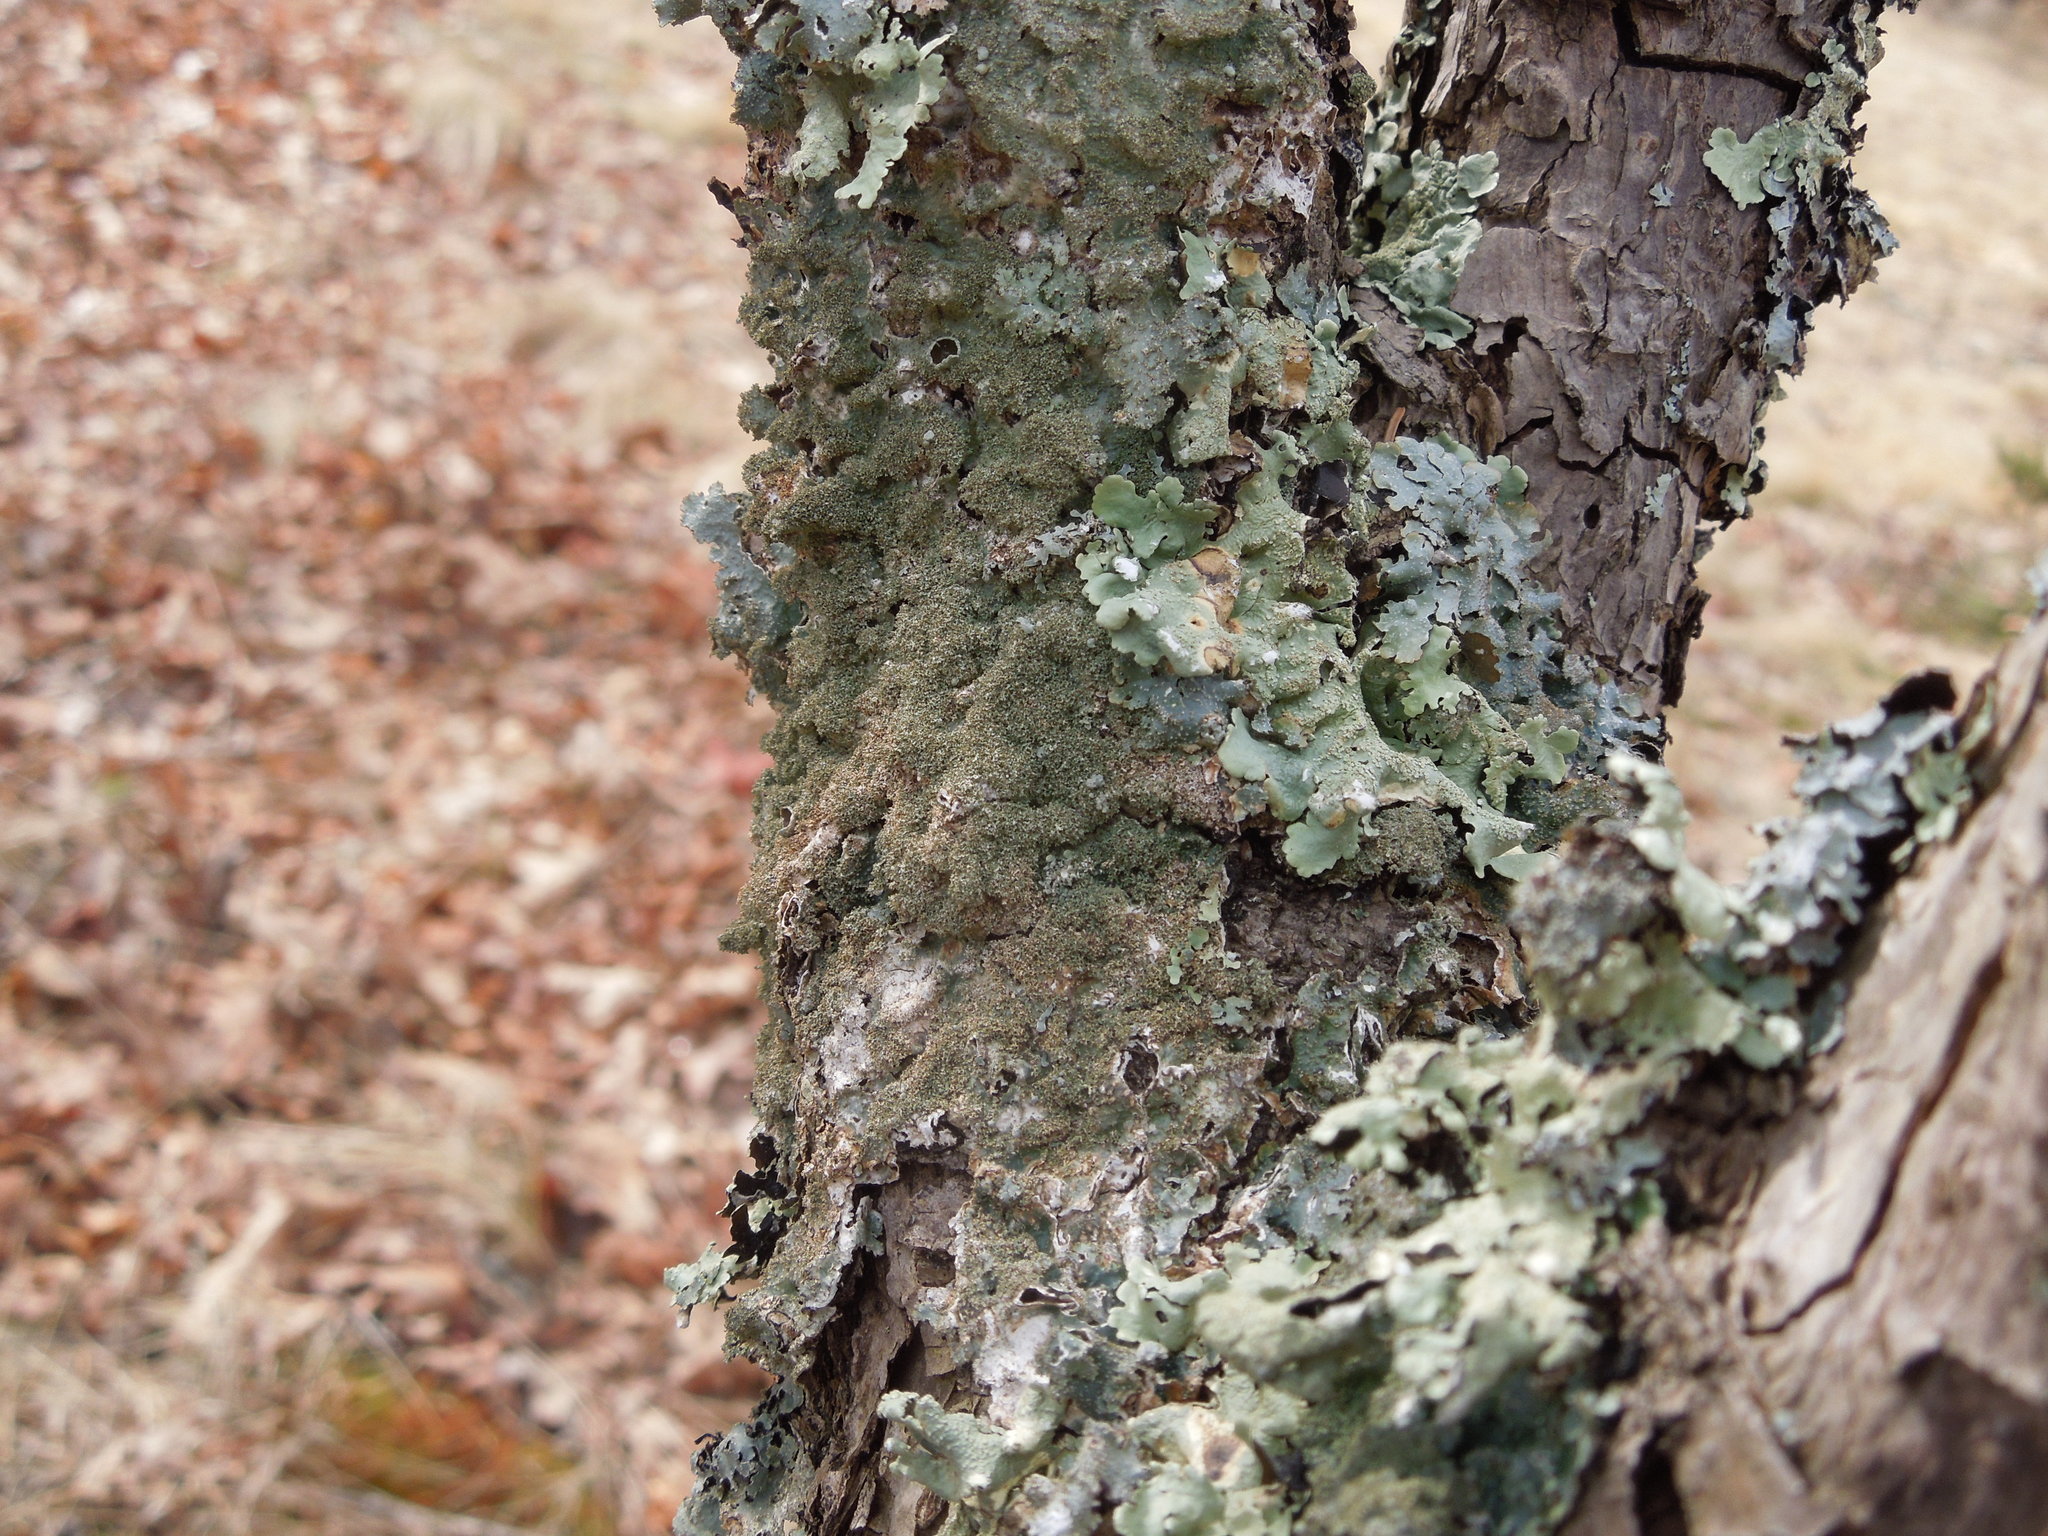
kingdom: Fungi
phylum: Ascomycota
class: Lecanoromycetes
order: Lecanorales
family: Parmeliaceae
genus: Punctelia
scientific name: Punctelia rudecta
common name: Rough speckled shield lichen
